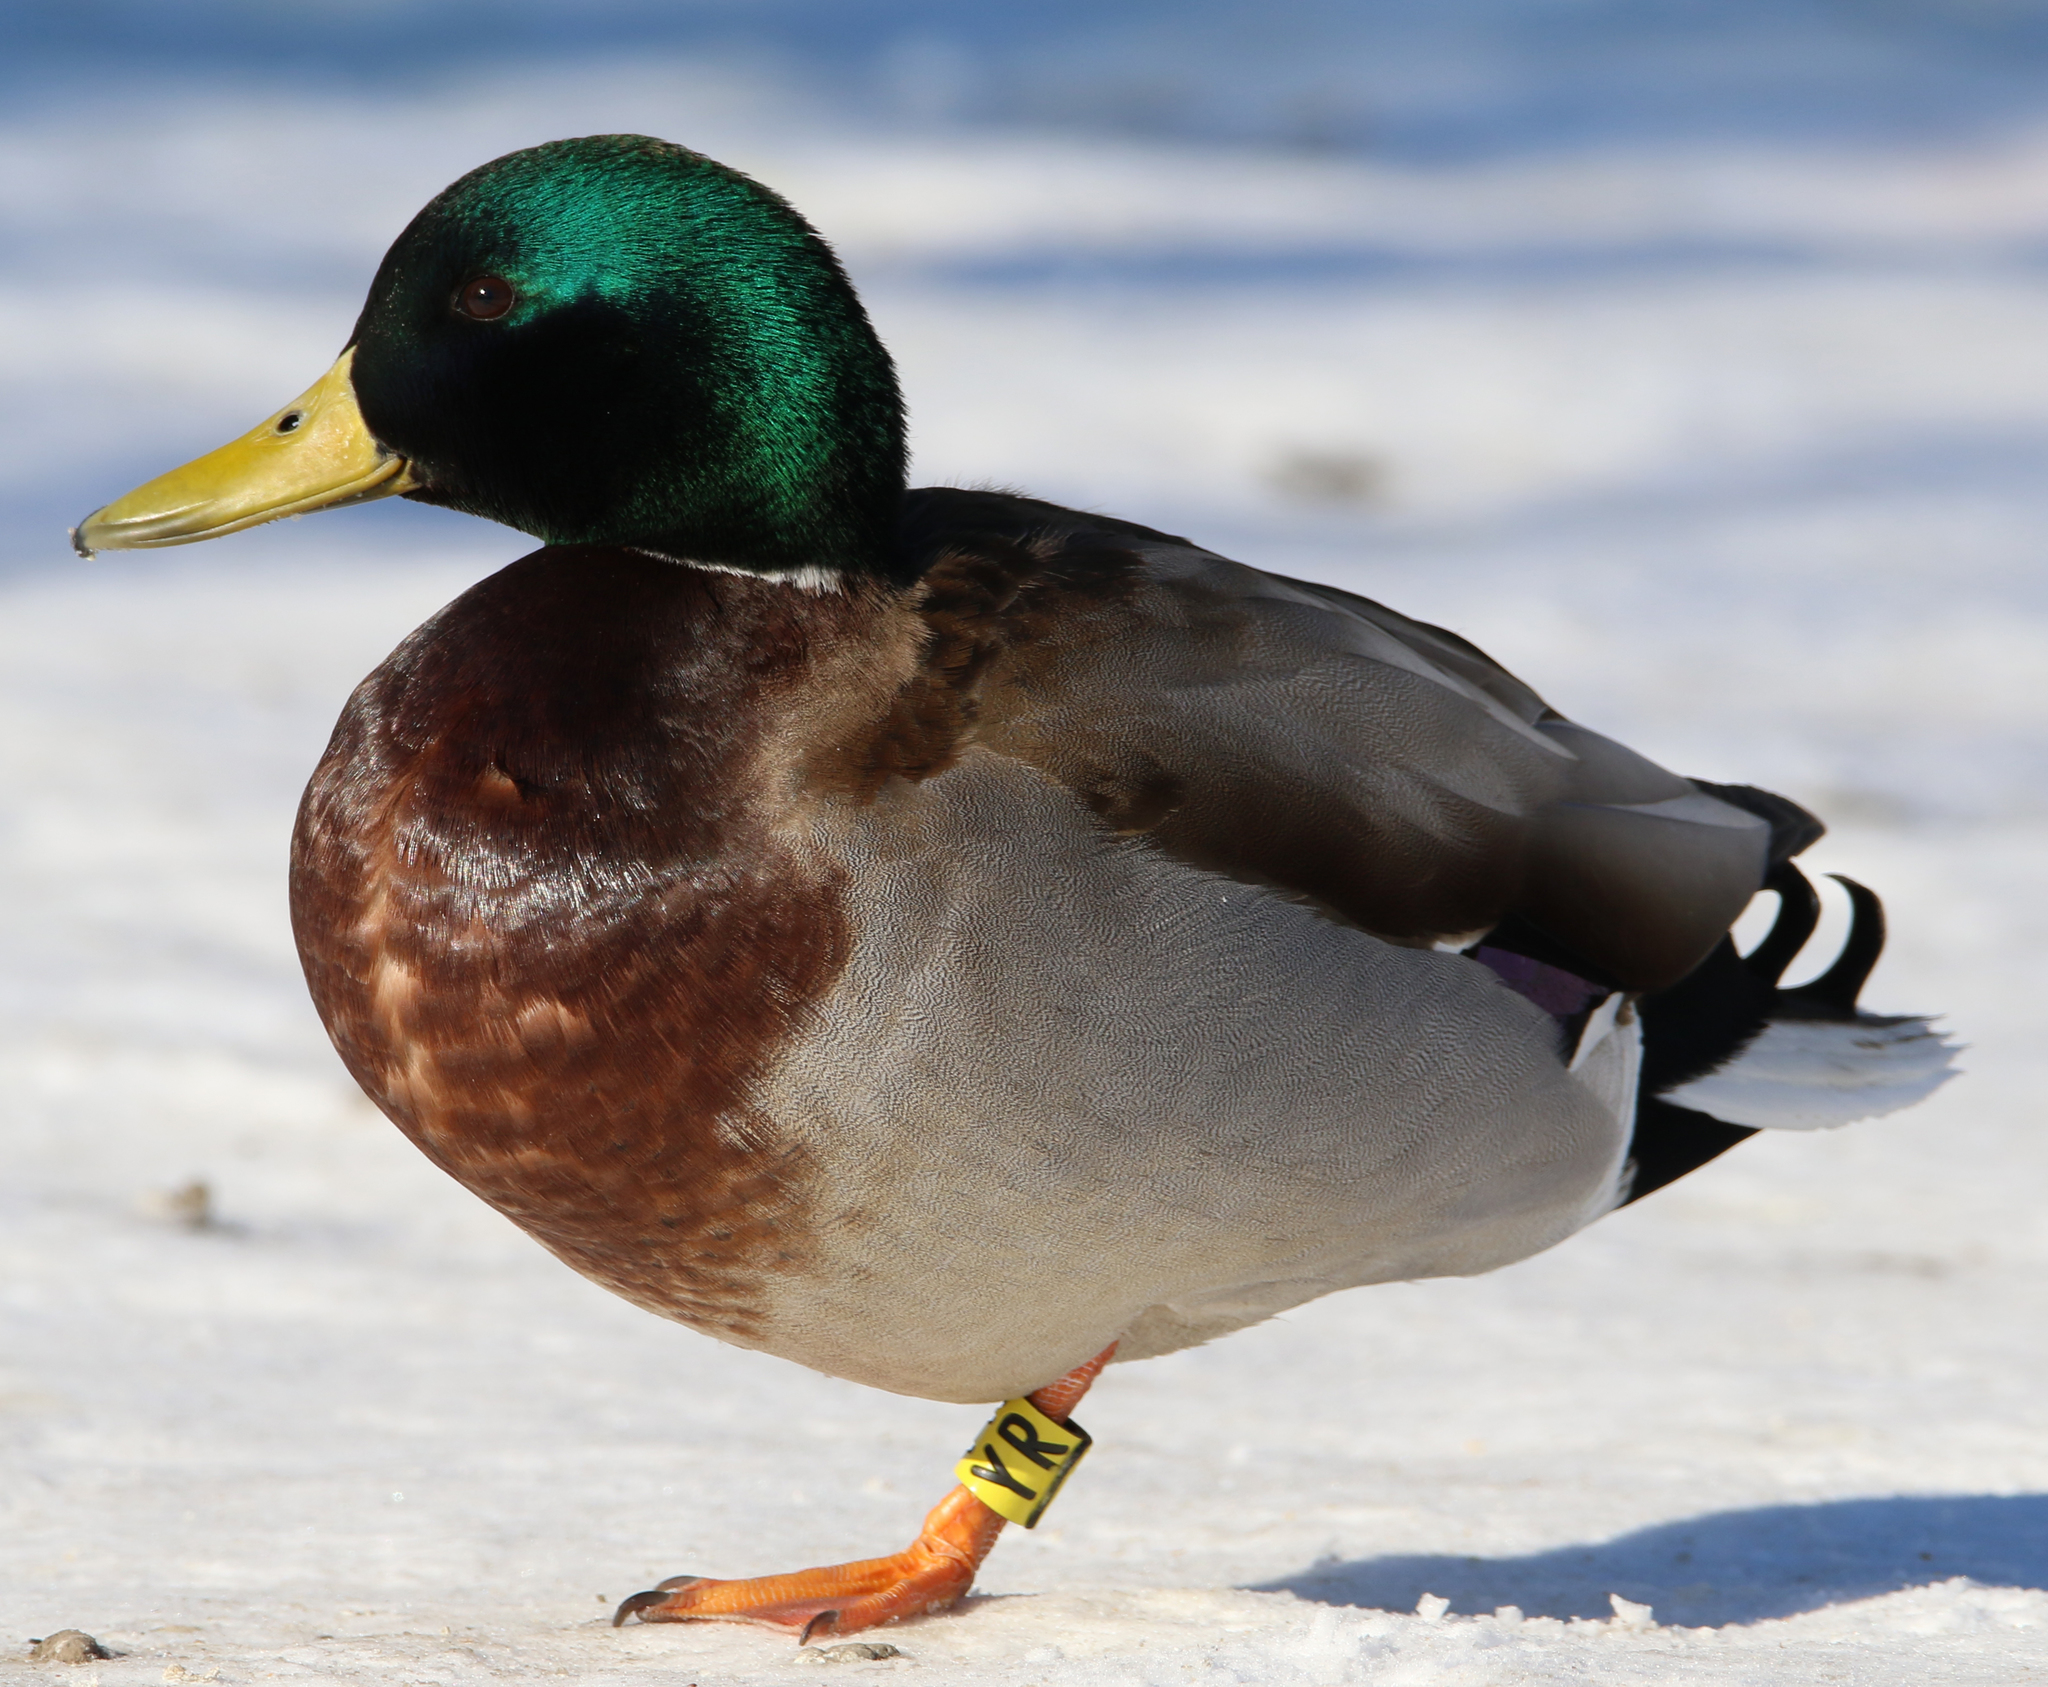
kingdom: Animalia
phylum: Chordata
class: Aves
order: Anseriformes
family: Anatidae
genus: Anas
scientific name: Anas platyrhynchos
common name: Mallard
